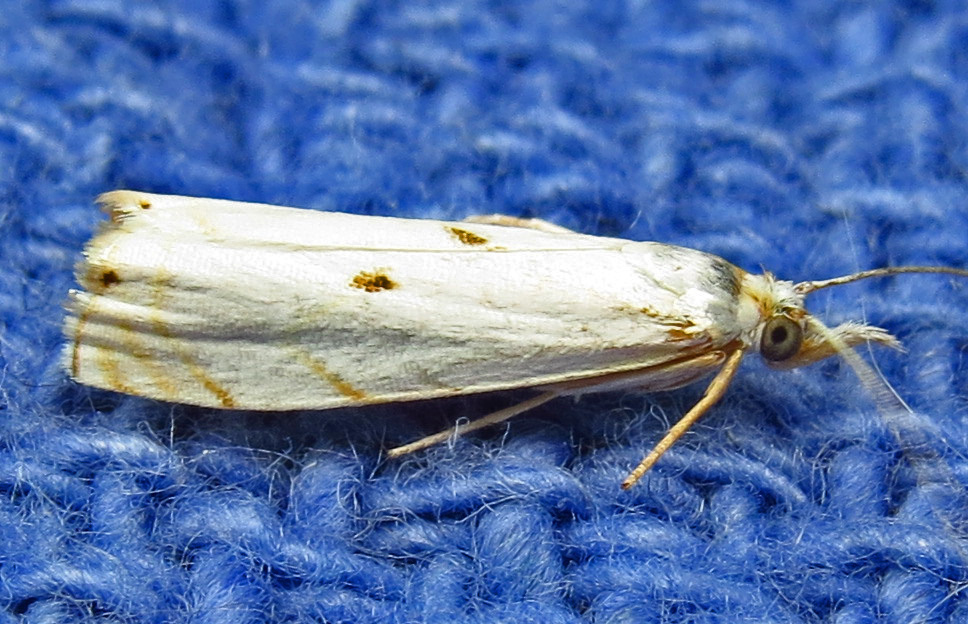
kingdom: Animalia
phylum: Arthropoda
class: Insecta
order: Lepidoptera
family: Crambidae
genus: Microcrambus
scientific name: Microcrambus biguttellus
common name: Gold-stripe grass-veneer moth
